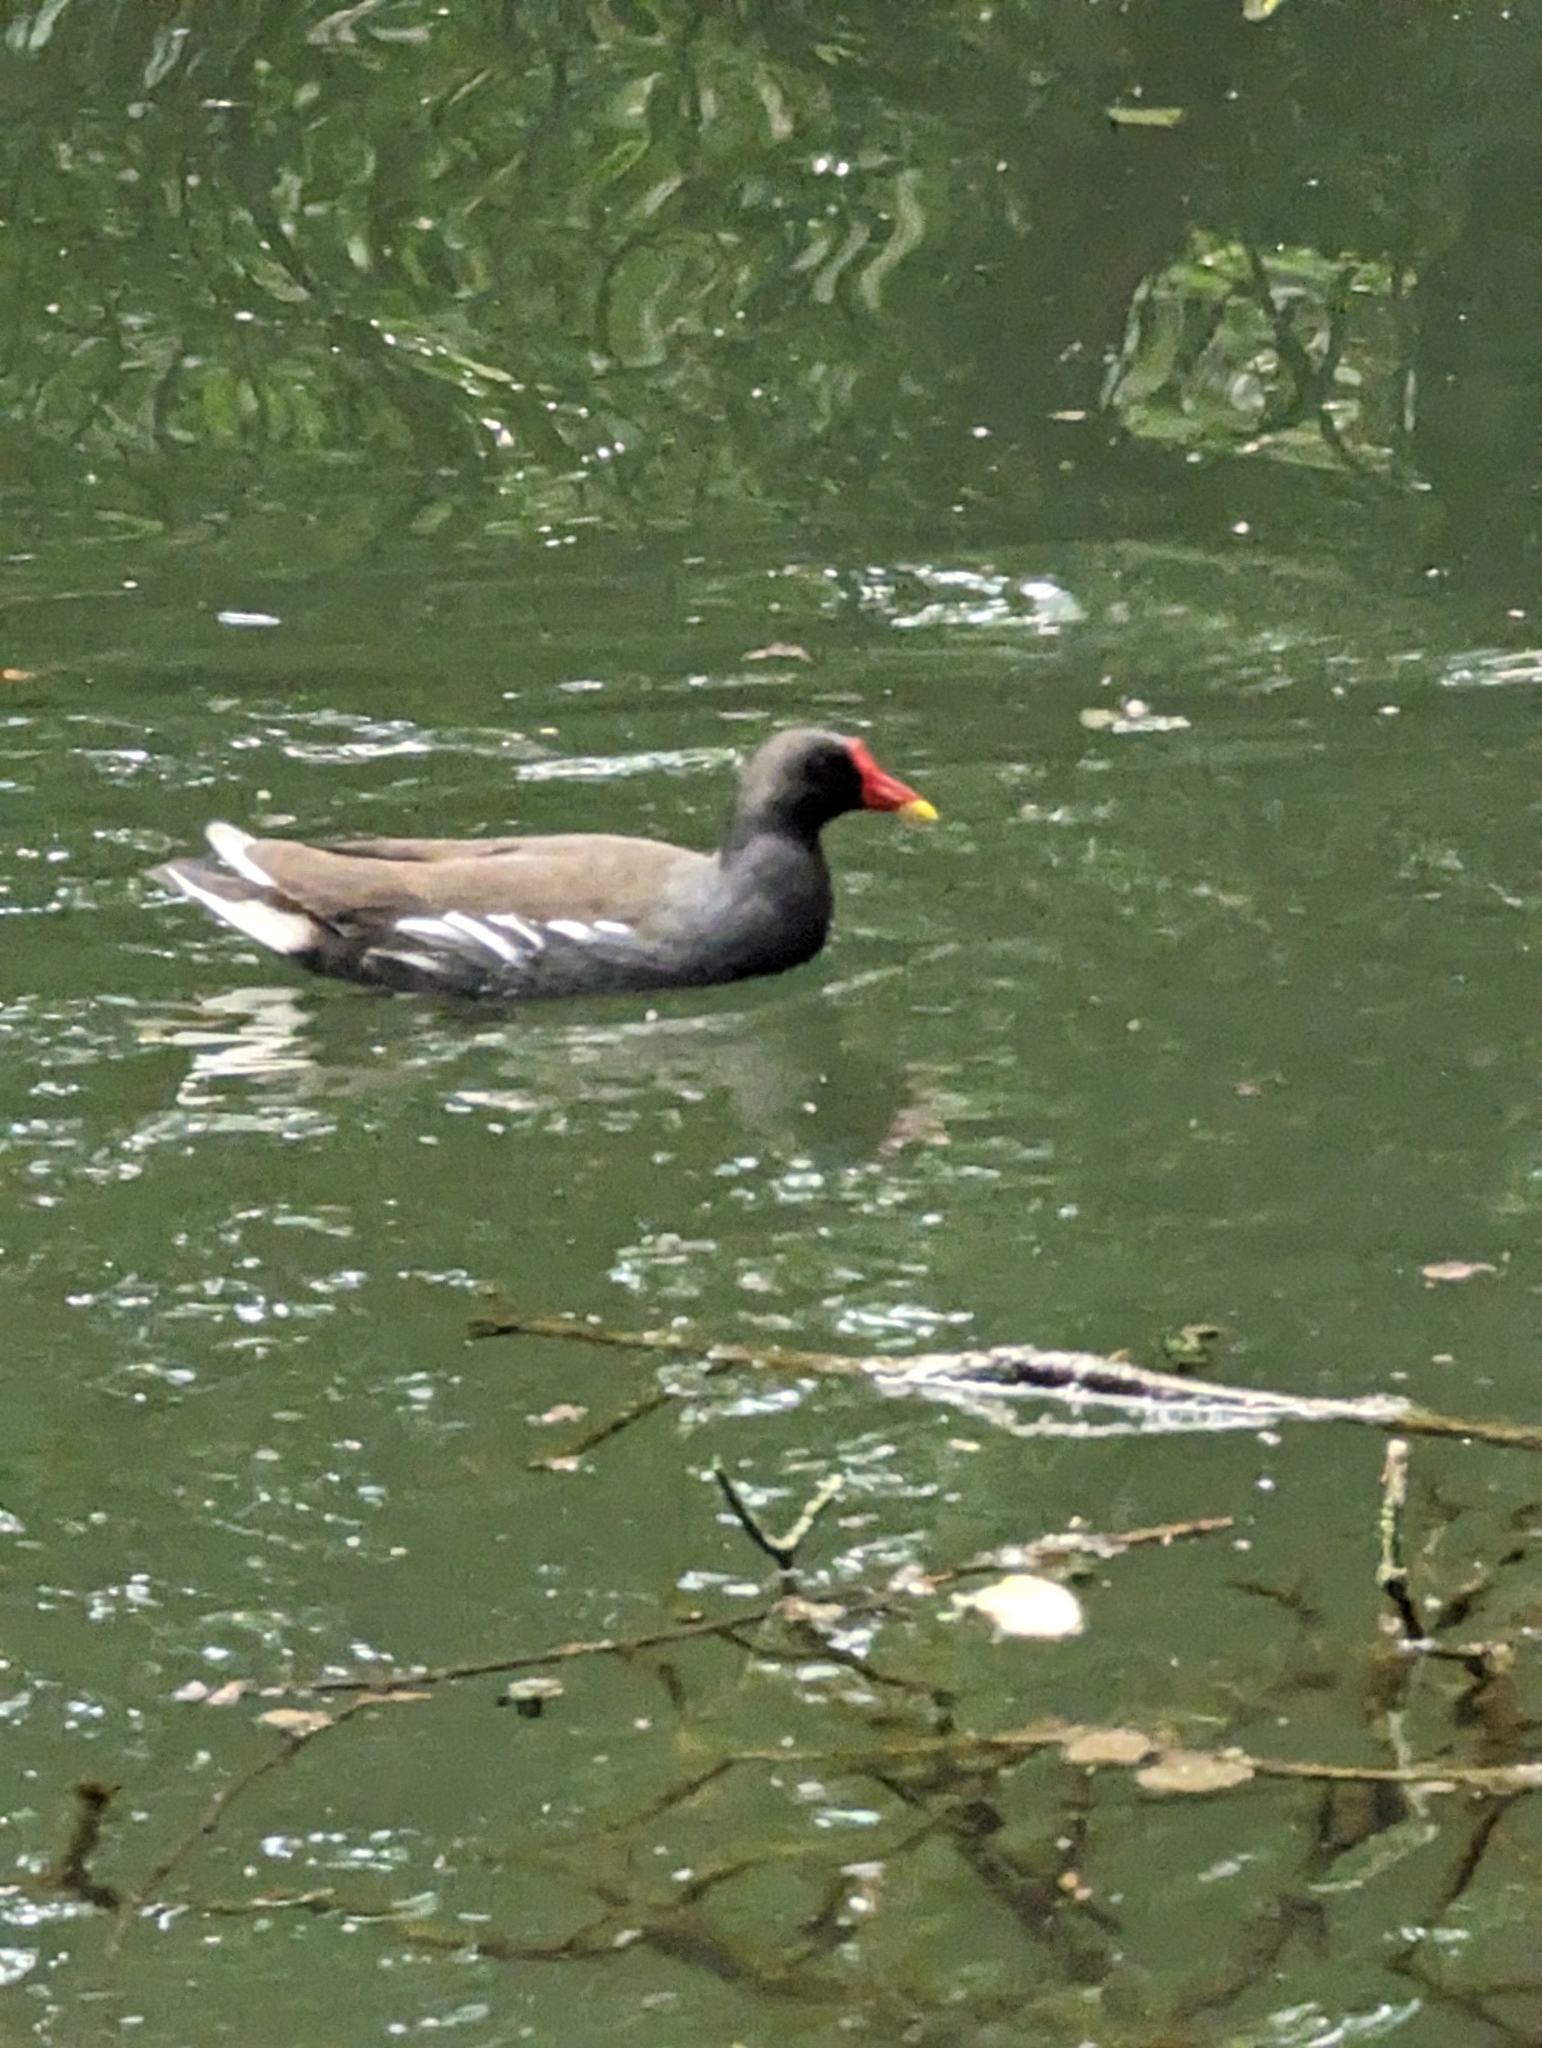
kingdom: Animalia
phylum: Chordata
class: Aves
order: Gruiformes
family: Rallidae
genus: Gallinula
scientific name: Gallinula chloropus
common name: Common moorhen
